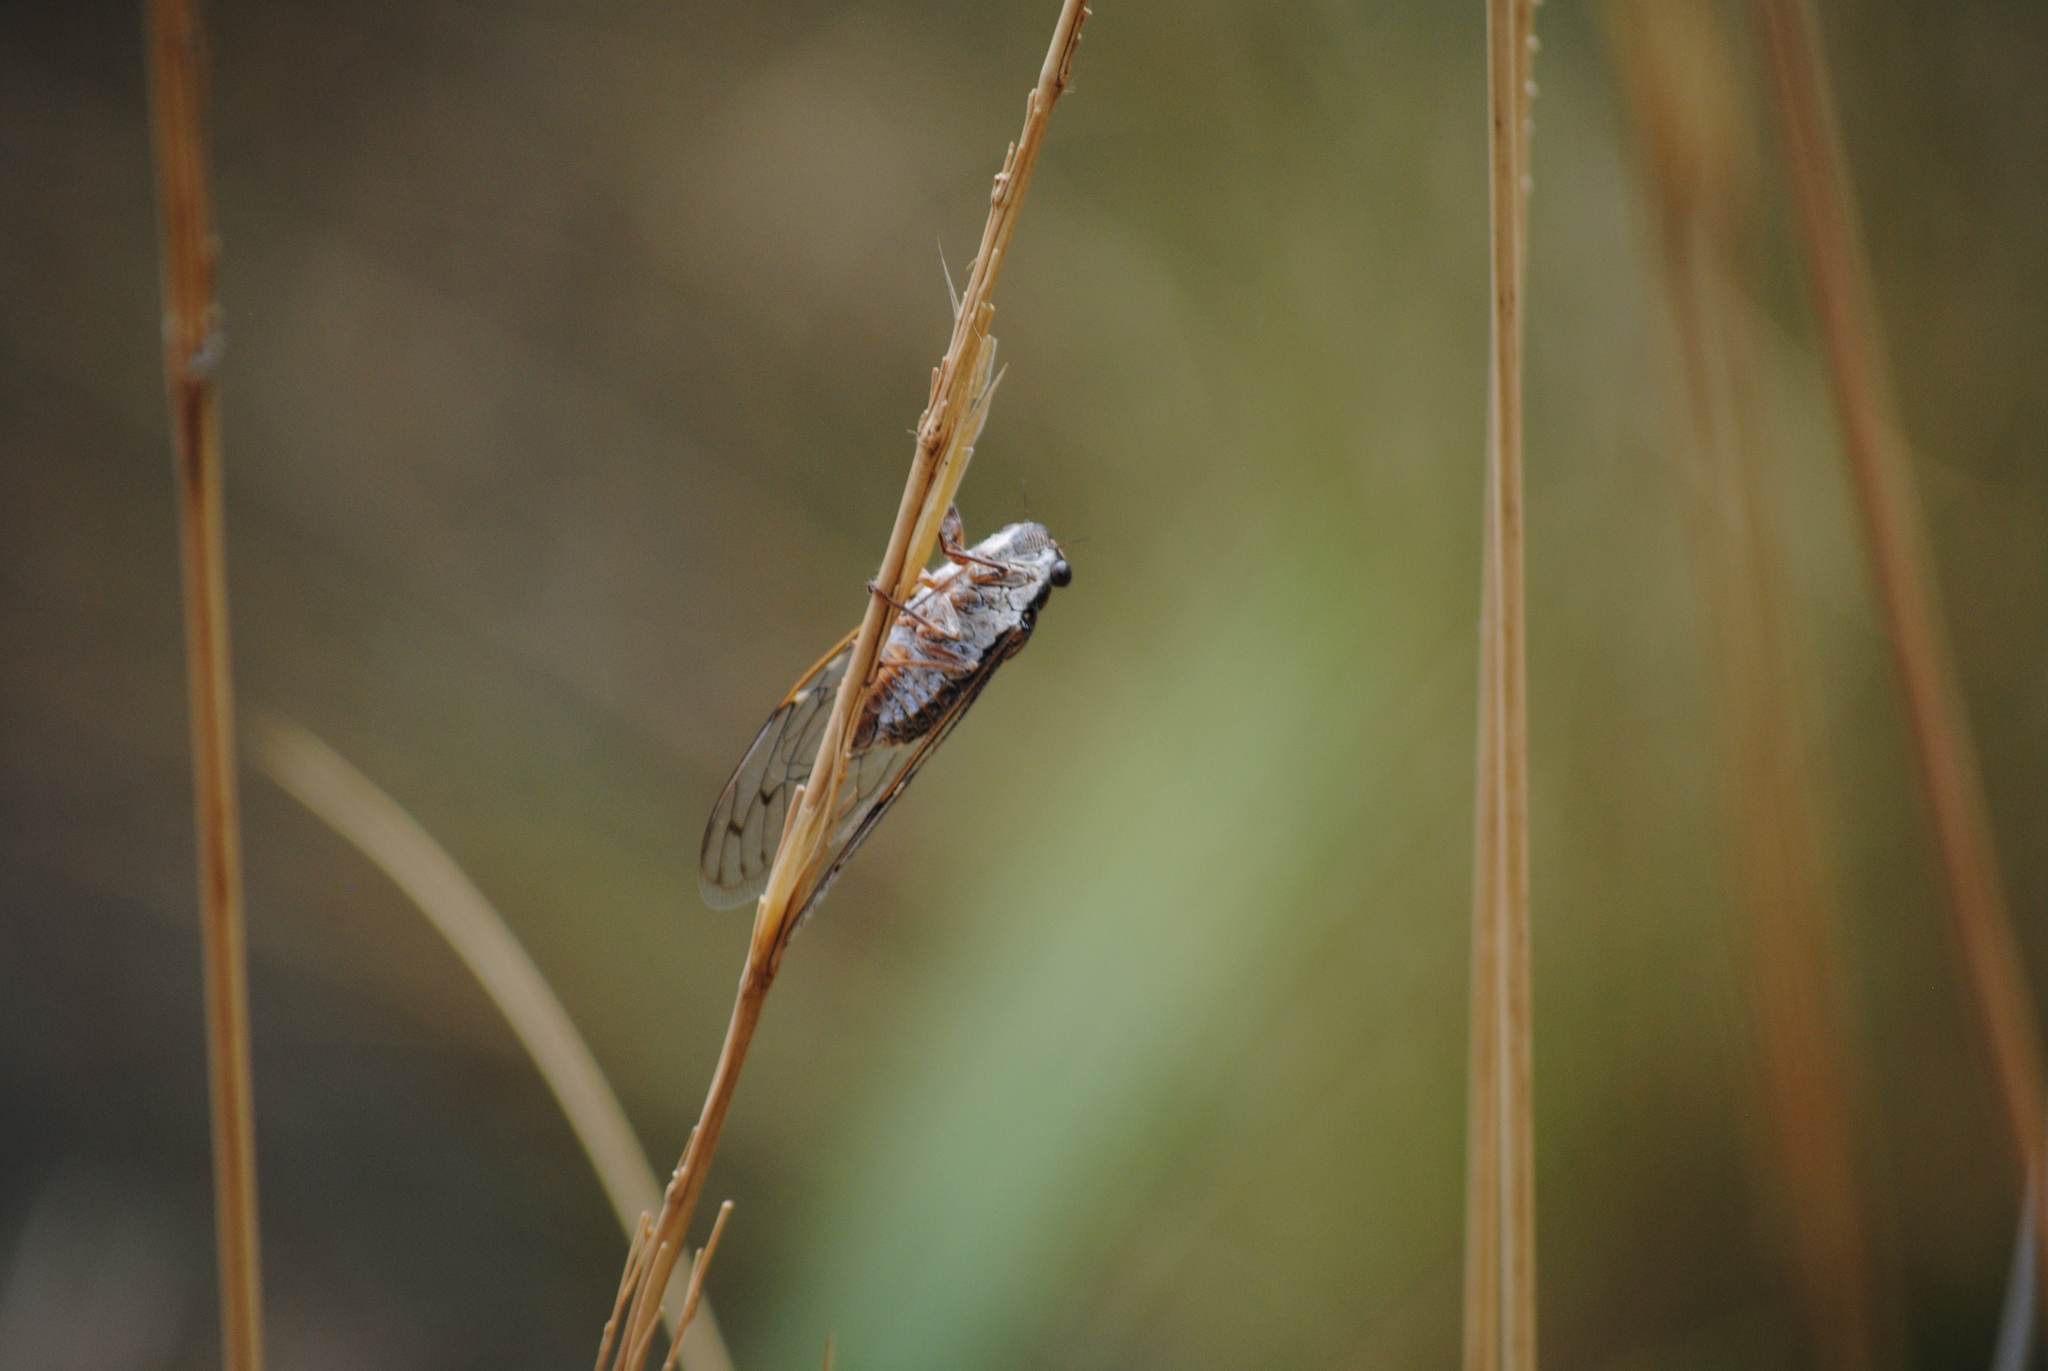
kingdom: Animalia
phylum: Arthropoda
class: Insecta
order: Hemiptera
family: Cicadidae
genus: Cicada
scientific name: Cicada barbara
